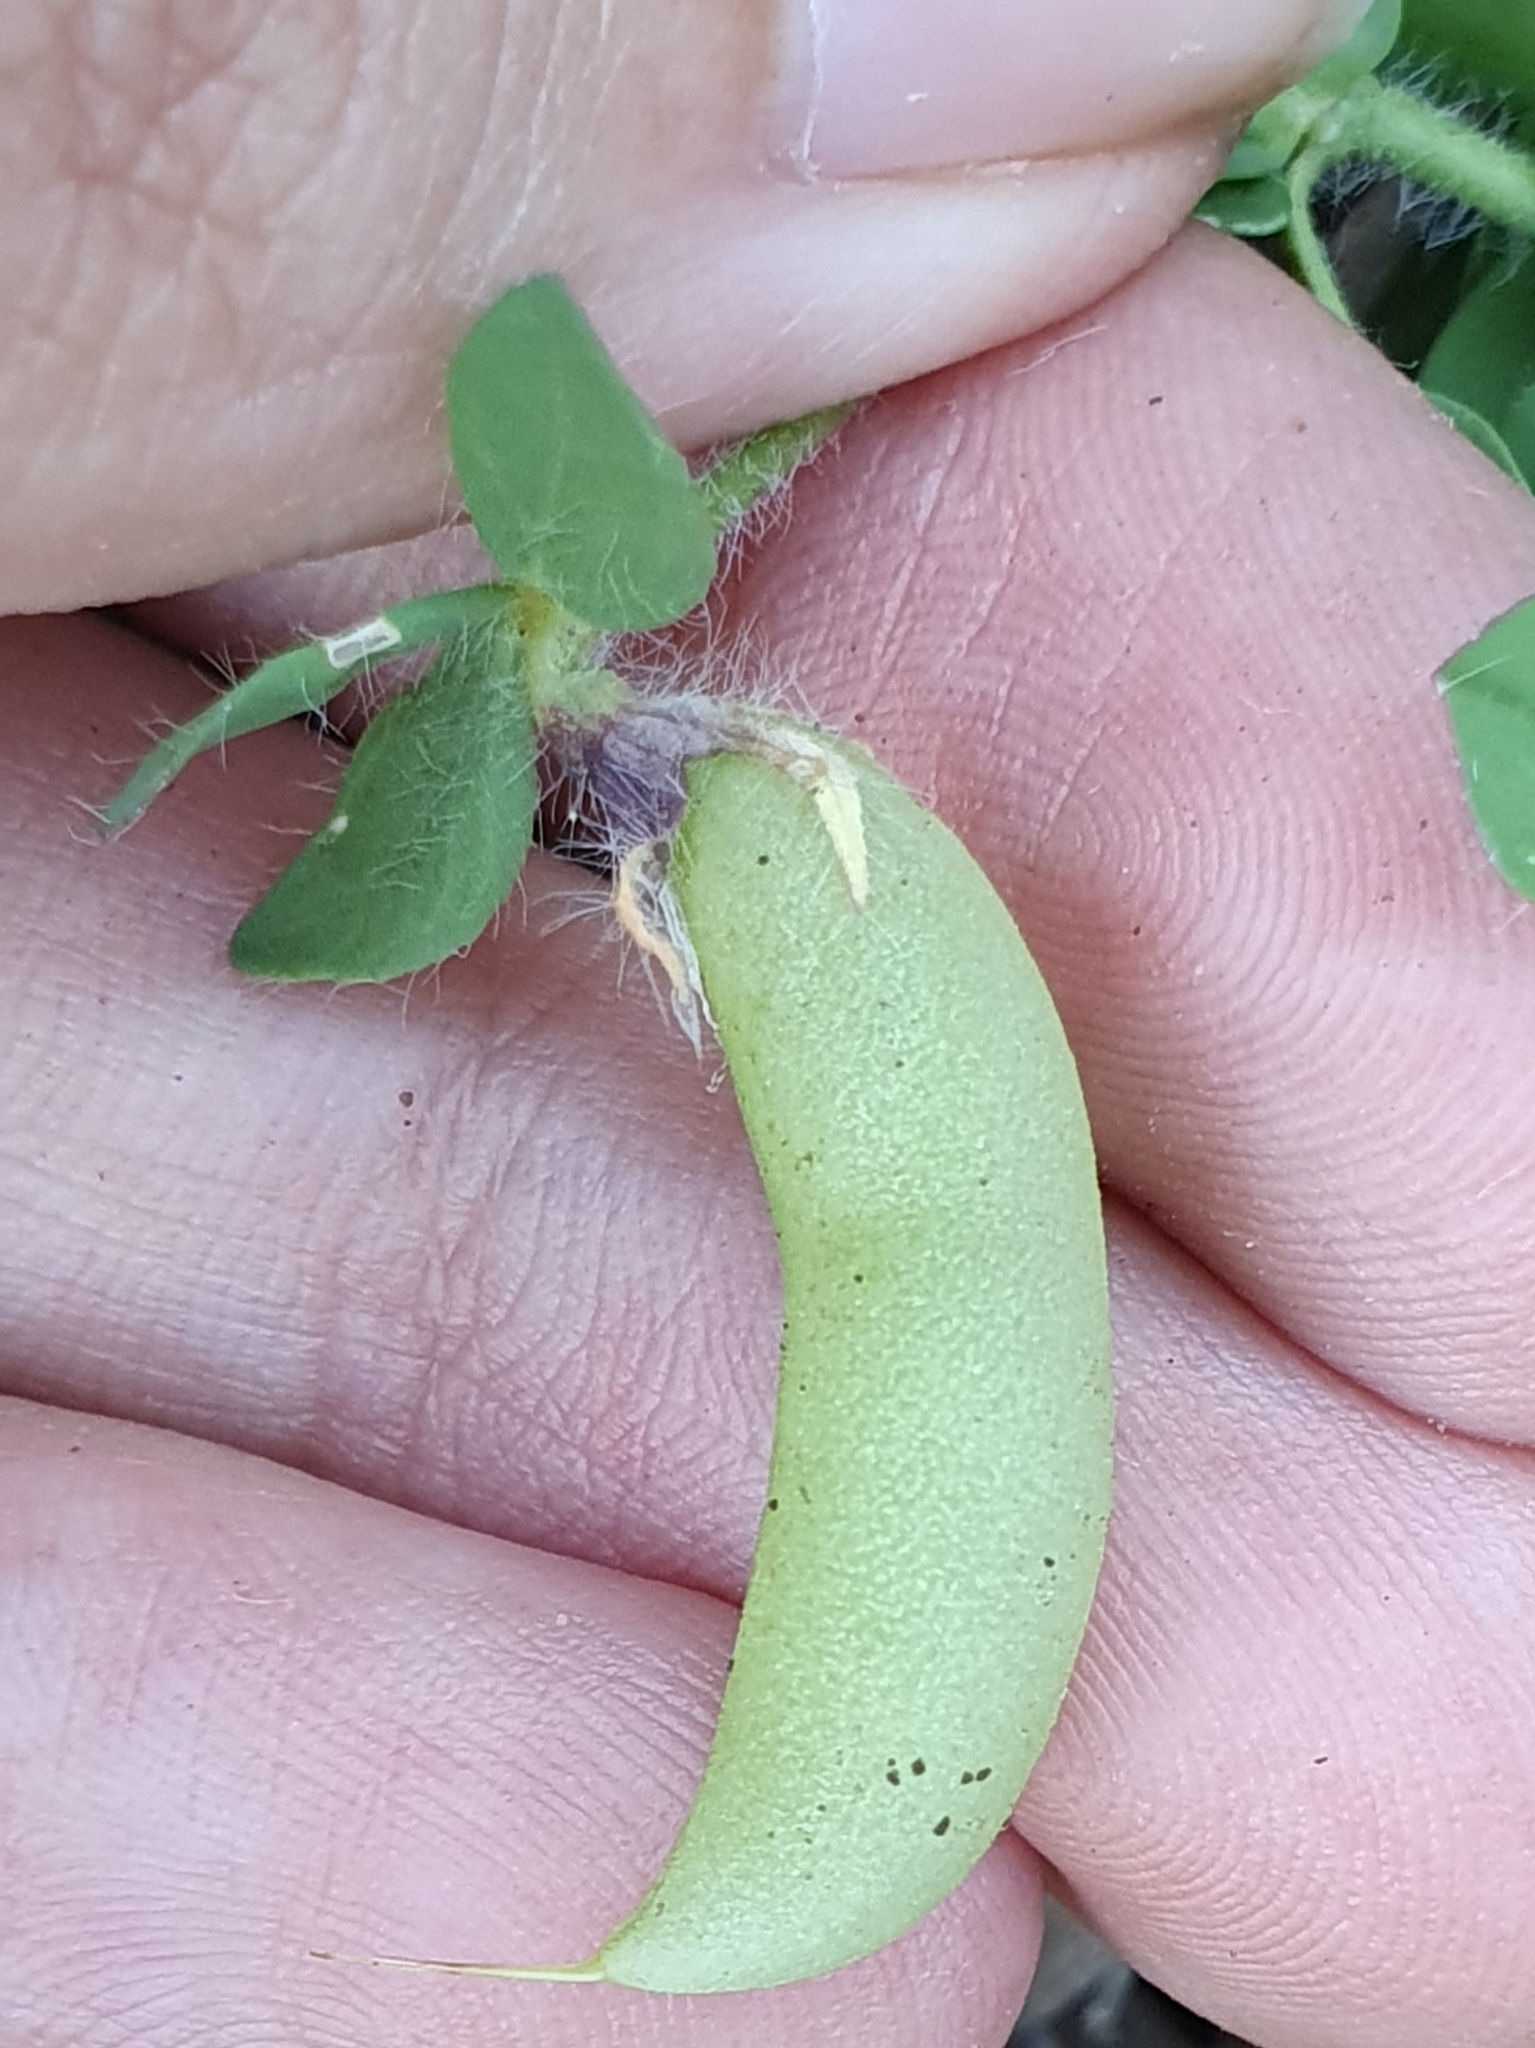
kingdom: Plantae
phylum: Tracheophyta
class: Magnoliopsida
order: Fabales
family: Fabaceae
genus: Lotus
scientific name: Lotus edulis
